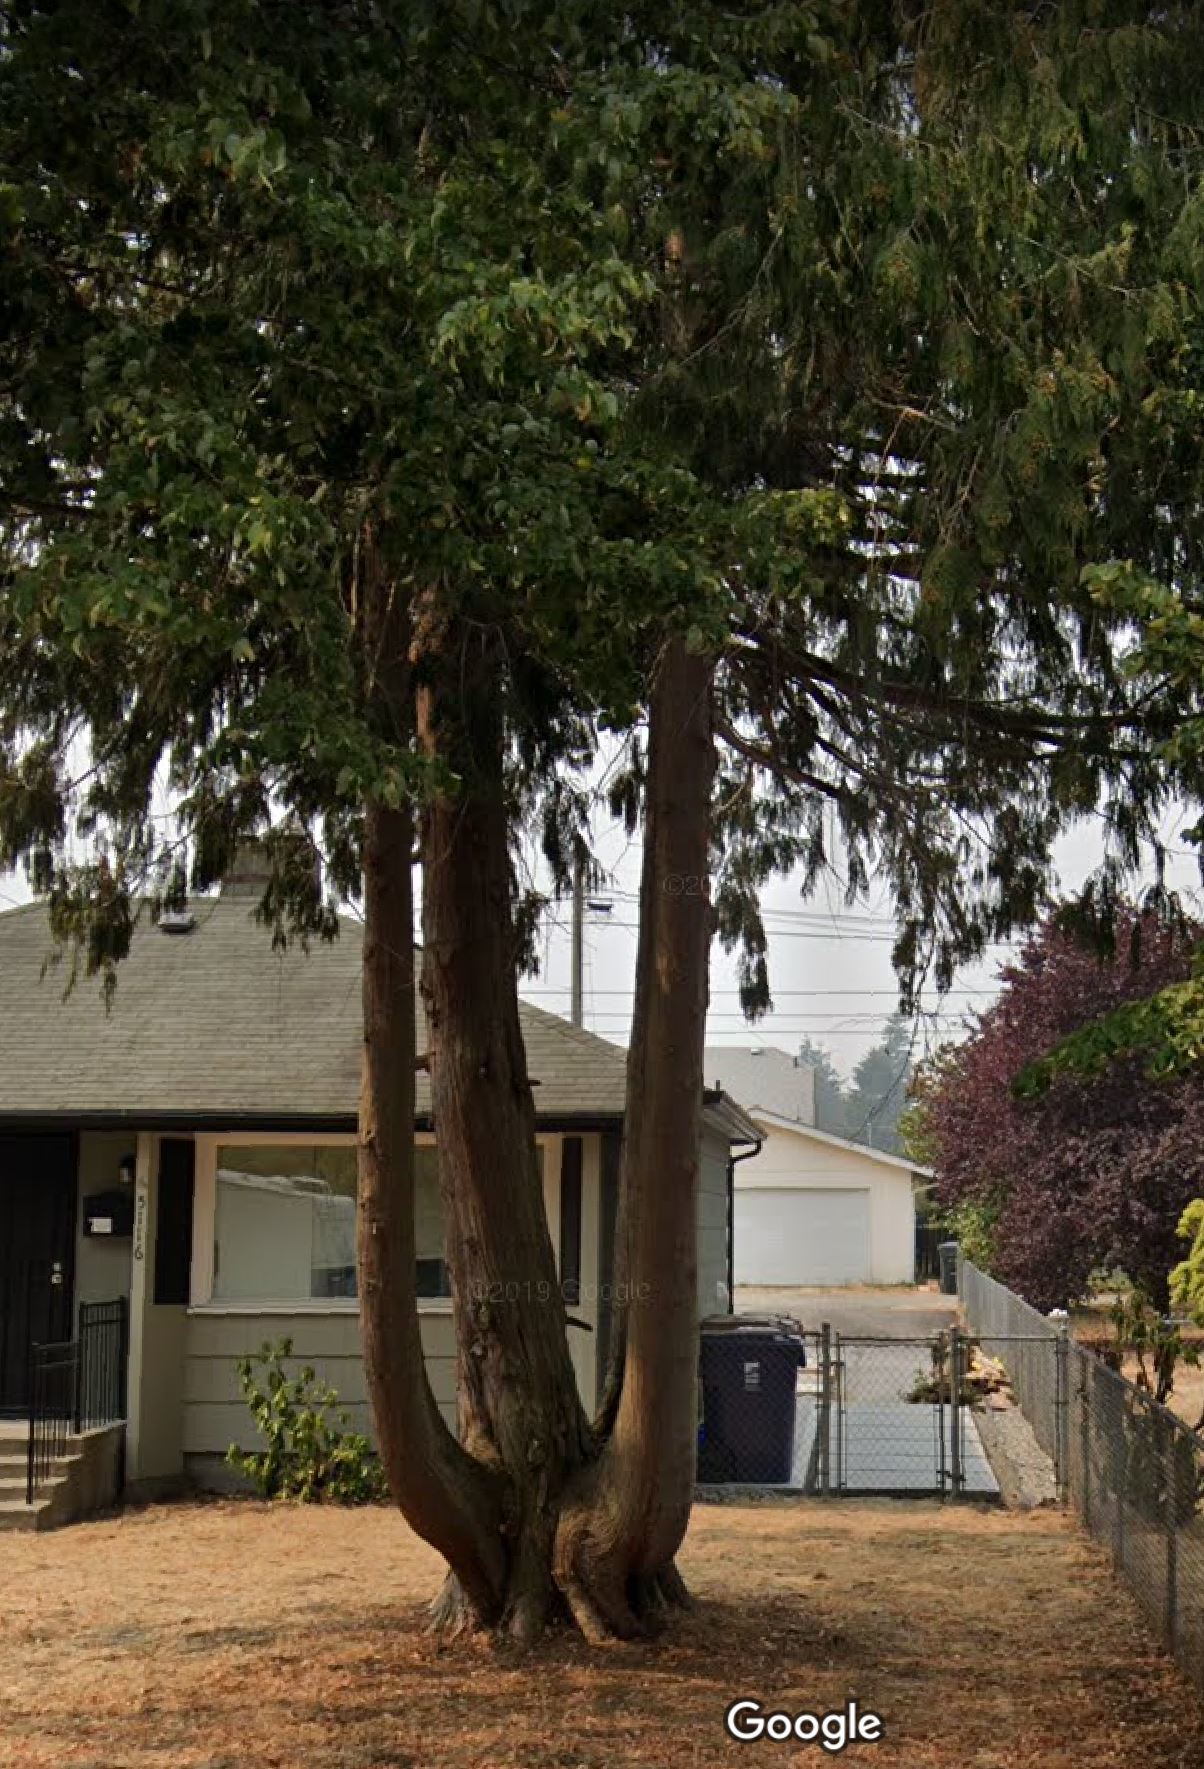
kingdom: Plantae
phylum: Tracheophyta
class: Pinopsida
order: Pinales
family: Cupressaceae
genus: Thuja
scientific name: Thuja plicata
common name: Western red-cedar
